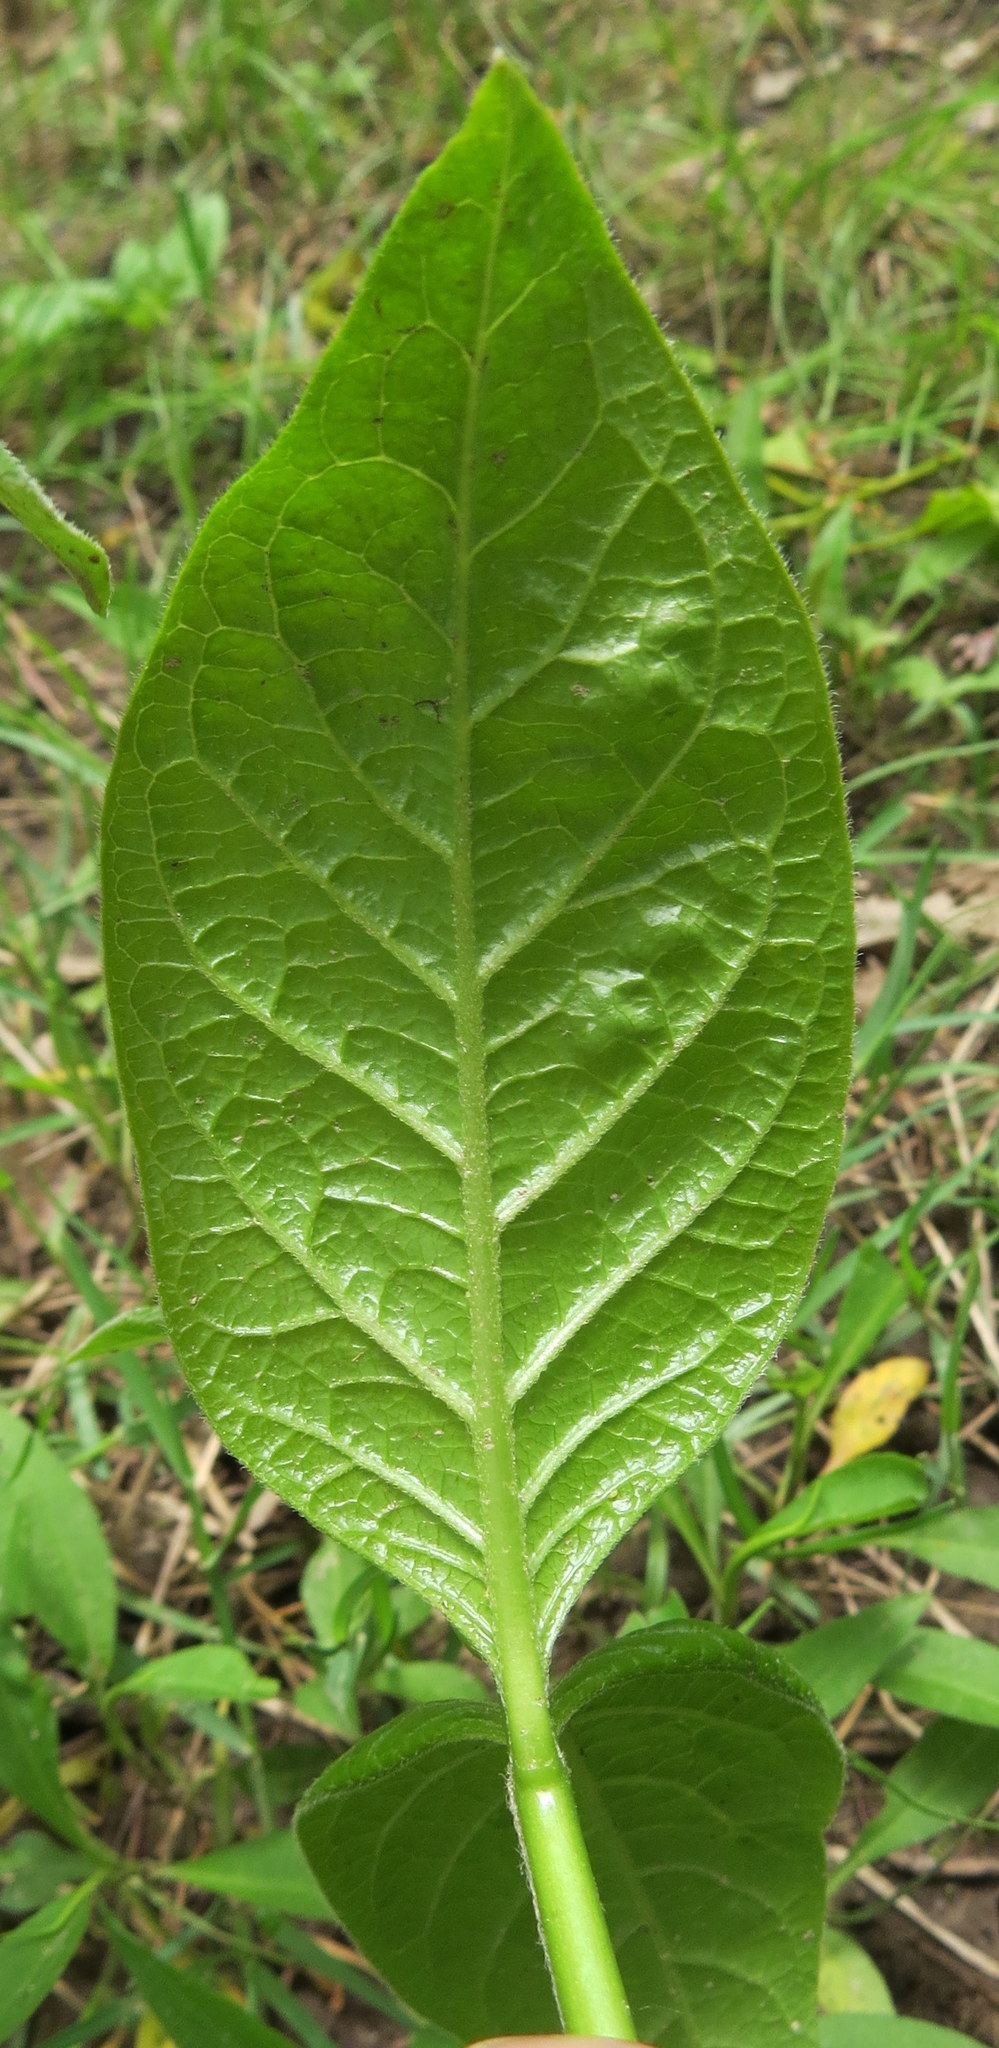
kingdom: Plantae
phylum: Tracheophyta
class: Magnoliopsida
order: Gentianales
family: Apocynaceae
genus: Asclepias
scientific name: Asclepias exaltata
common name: Poke milkweed
